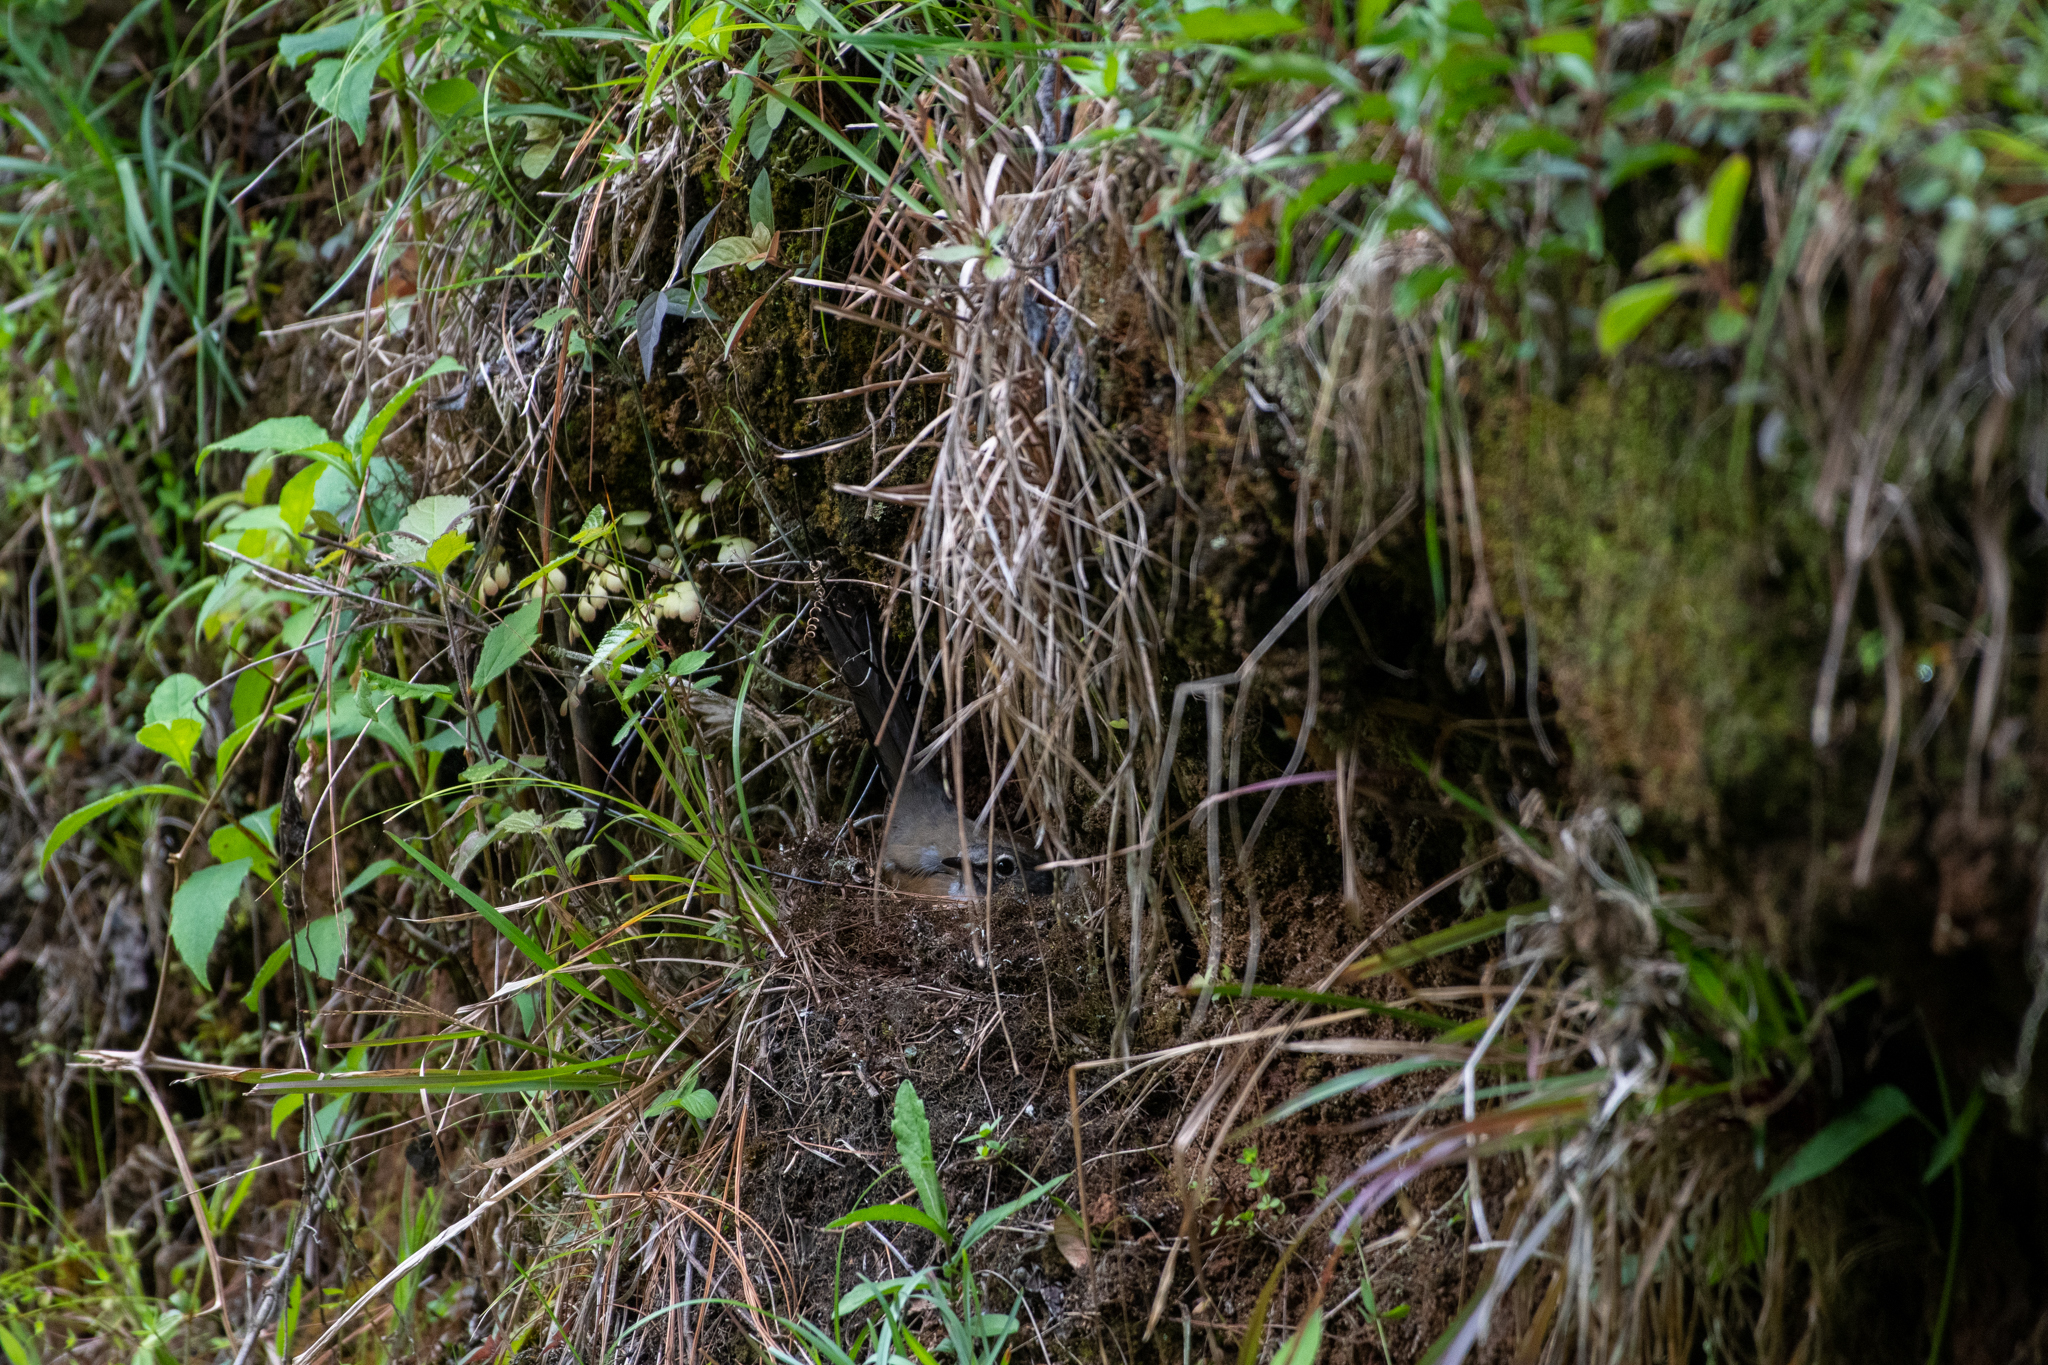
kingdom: Animalia
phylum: Chordata
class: Aves
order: Passeriformes
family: Turdidae
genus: Myadestes
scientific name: Myadestes occidentalis
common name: Brown-backed solitaire
